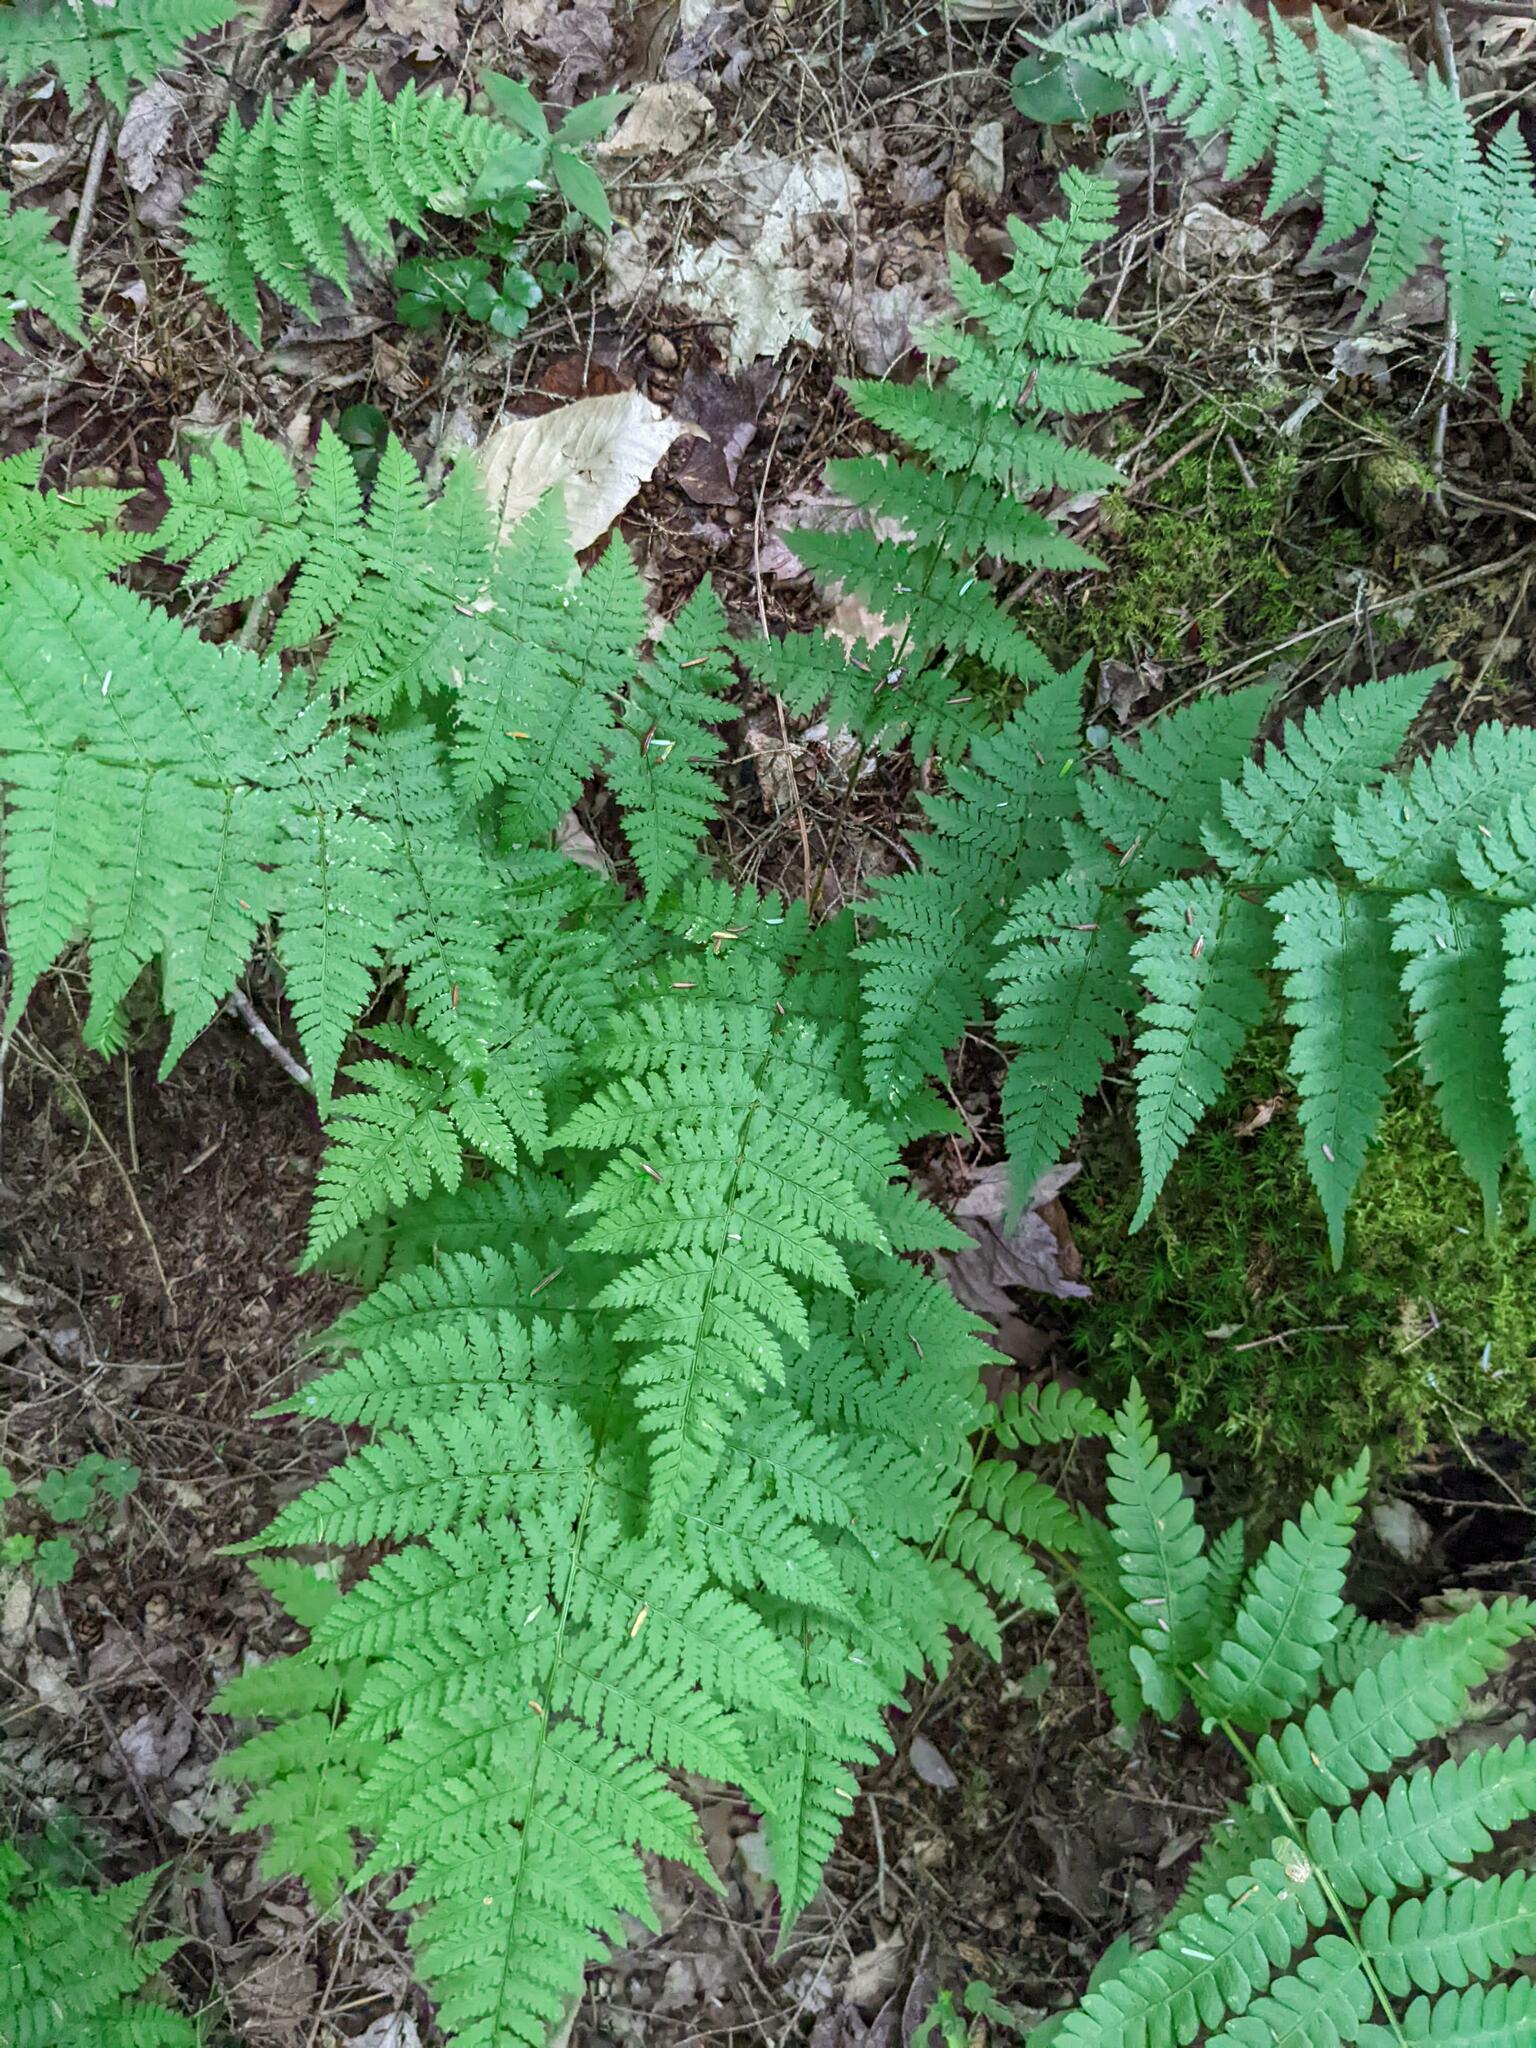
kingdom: Plantae
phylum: Tracheophyta
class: Polypodiopsida
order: Polypodiales
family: Dryopteridaceae
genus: Dryopteris
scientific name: Dryopteris intermedia
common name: Evergreen wood fern
